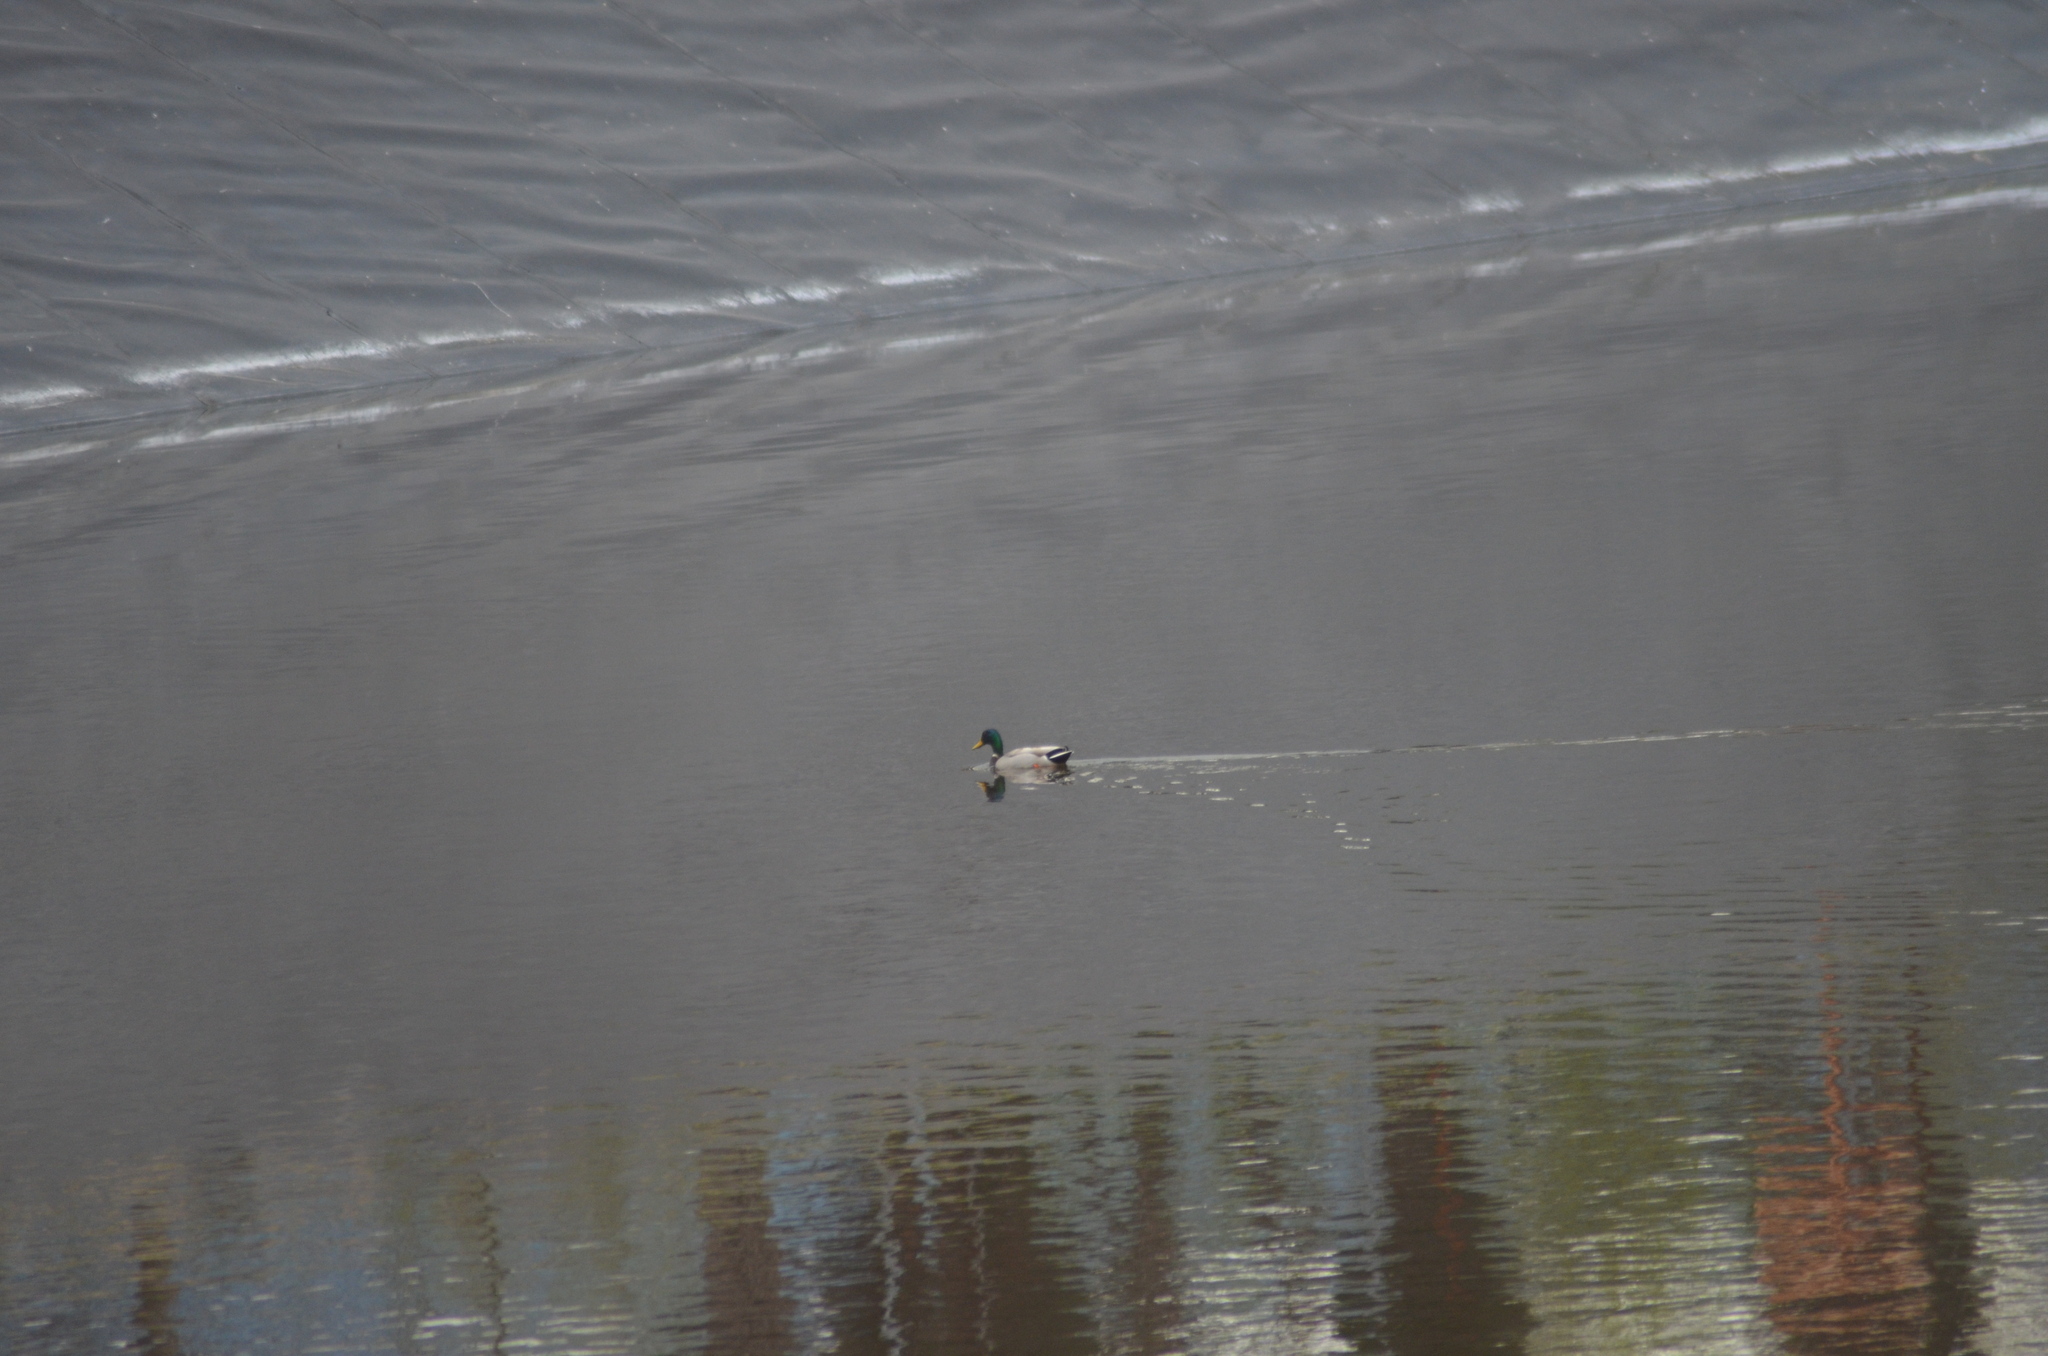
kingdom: Animalia
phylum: Chordata
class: Aves
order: Anseriformes
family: Anatidae
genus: Anas
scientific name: Anas platyrhynchos
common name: Mallard
